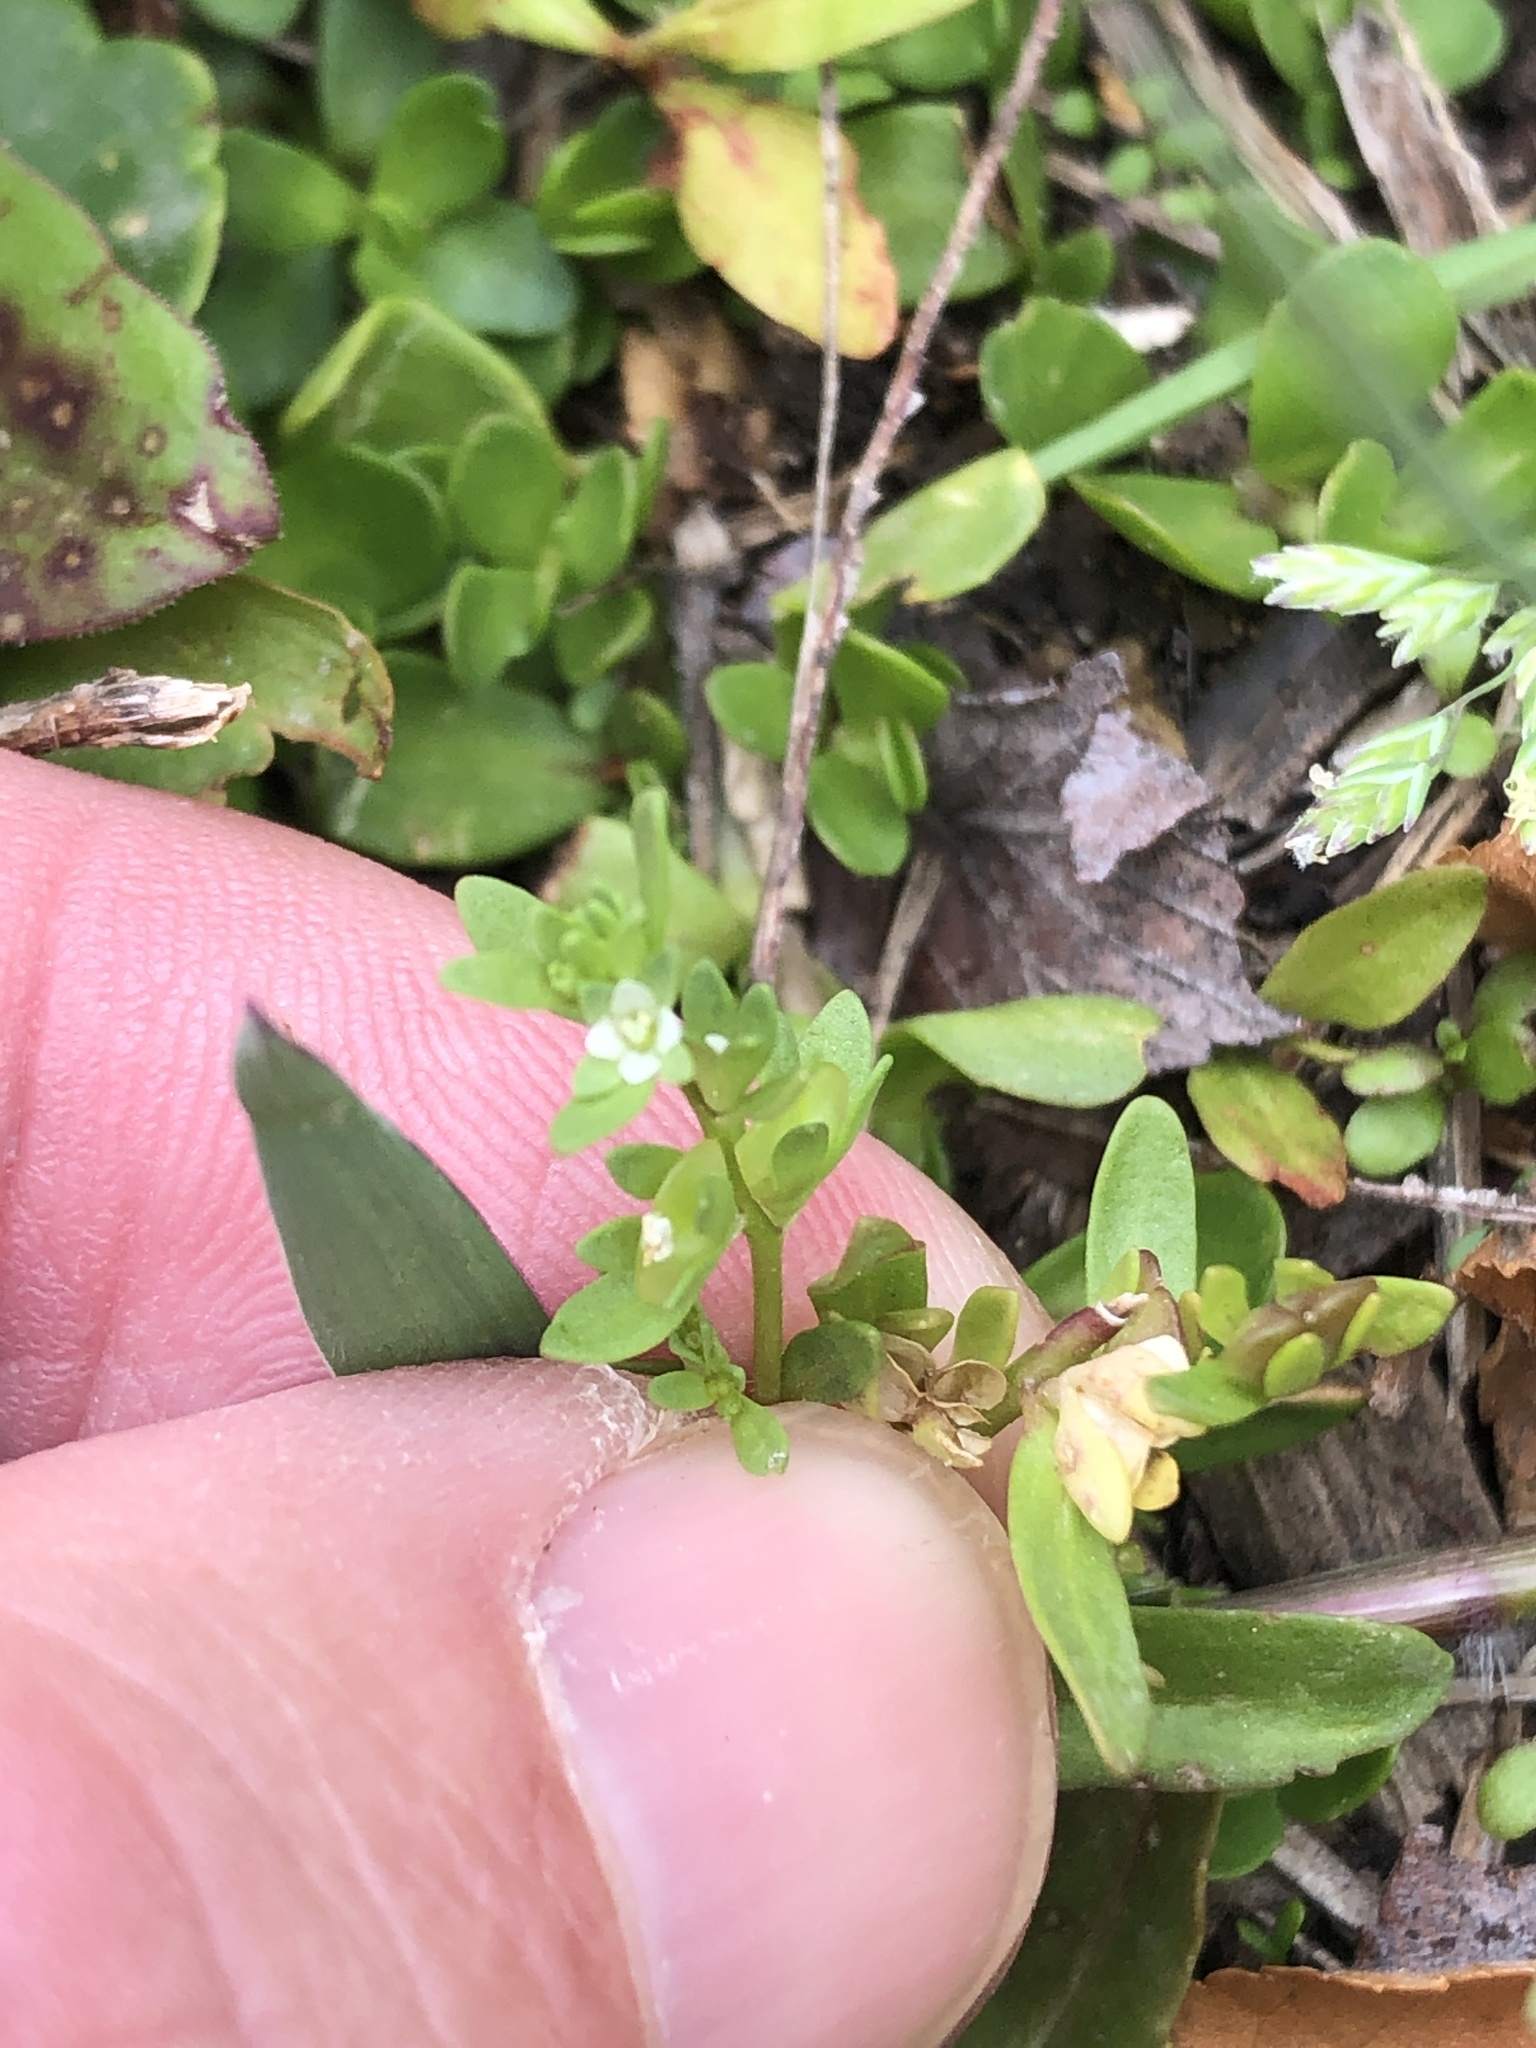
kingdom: Plantae
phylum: Tracheophyta
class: Magnoliopsida
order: Lamiales
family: Plantaginaceae
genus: Veronica
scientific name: Veronica peregrina
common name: Neckweed
